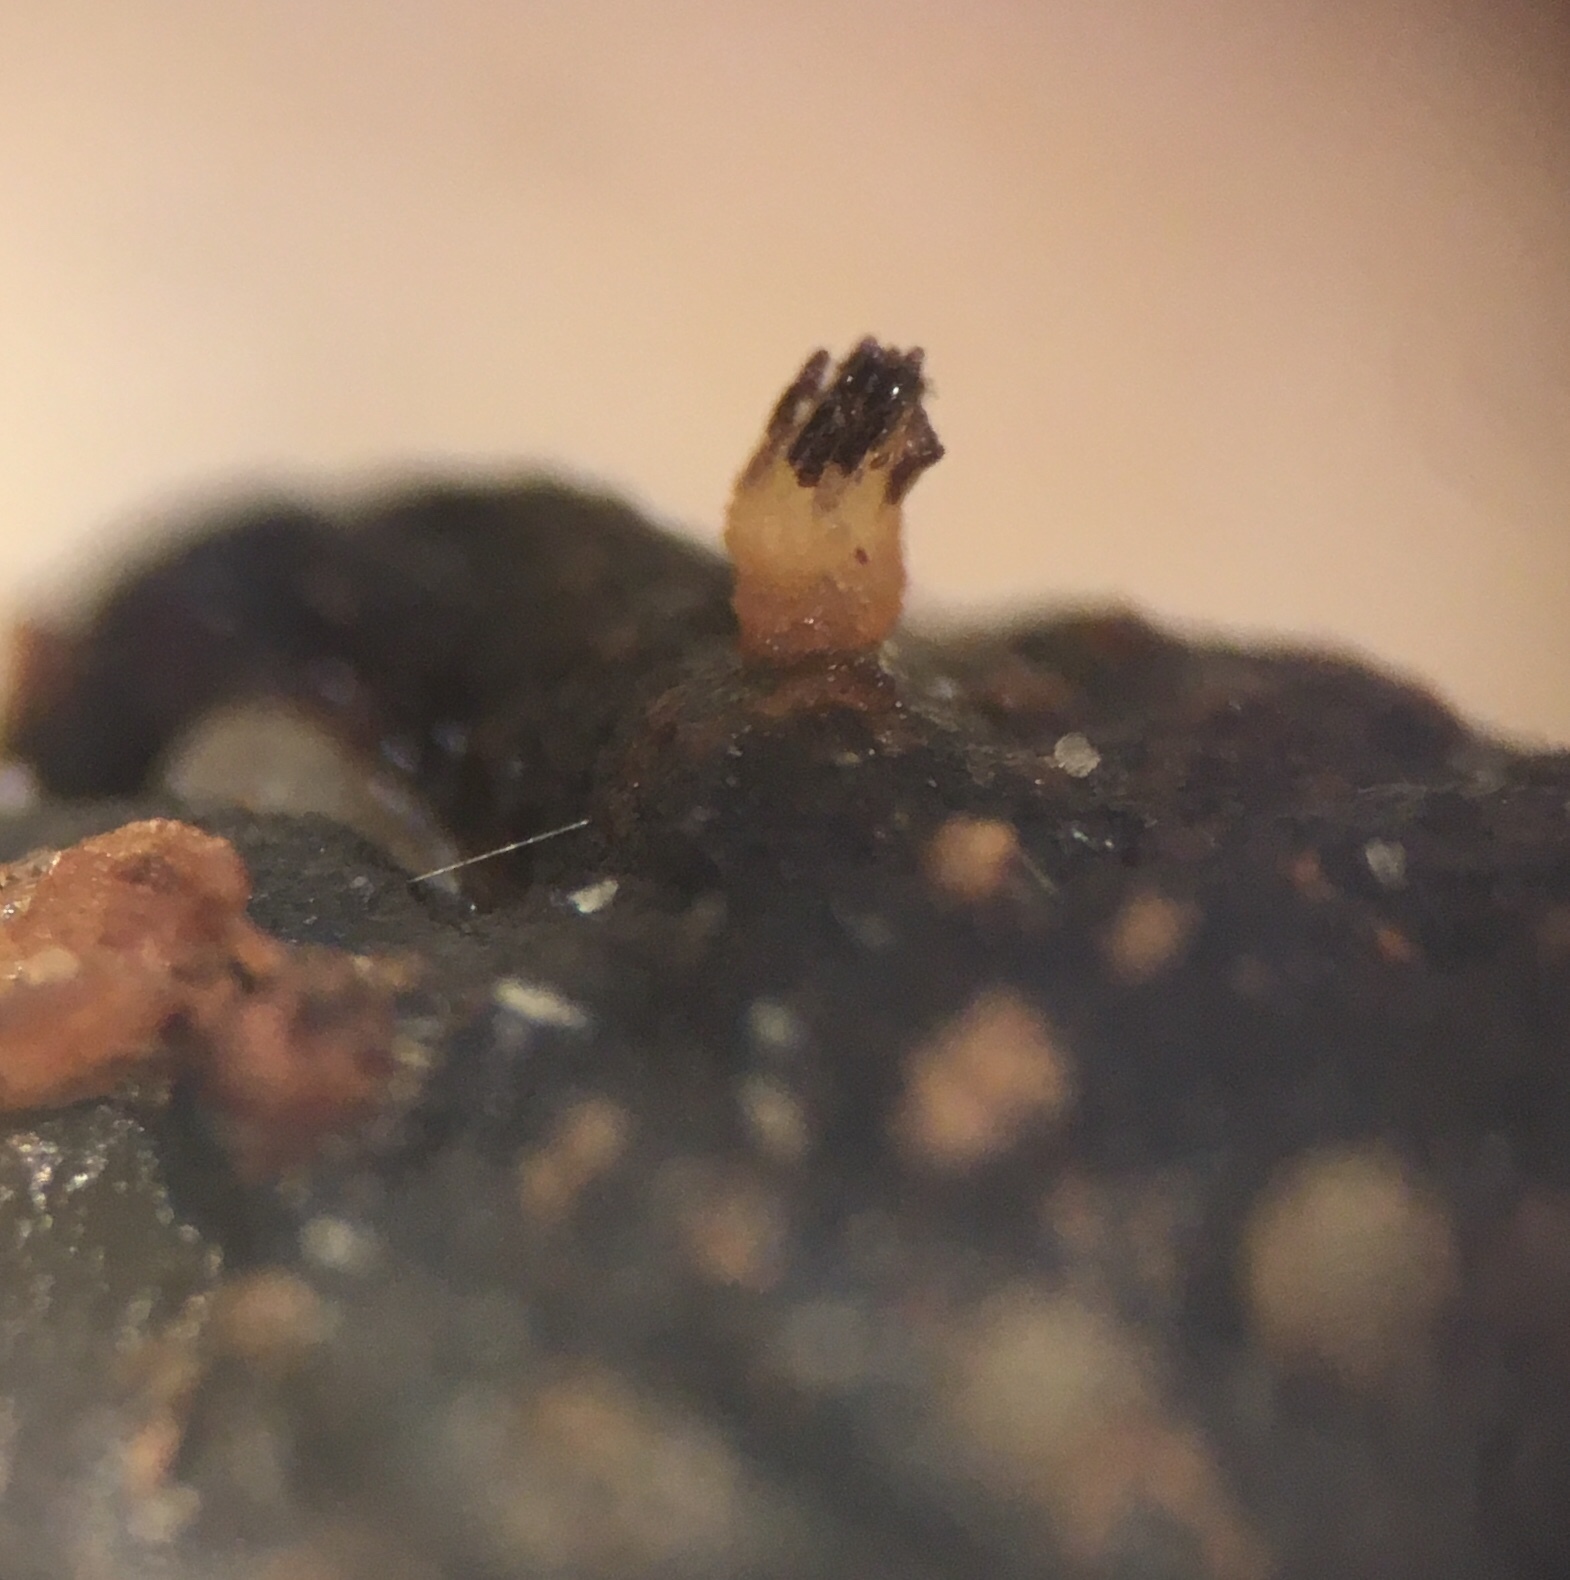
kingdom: Fungi
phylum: Ascomycota
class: Pezizomycetes
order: Pezizales
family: Ascobolaceae
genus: Ascobolus
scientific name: Ascobolus americanus
